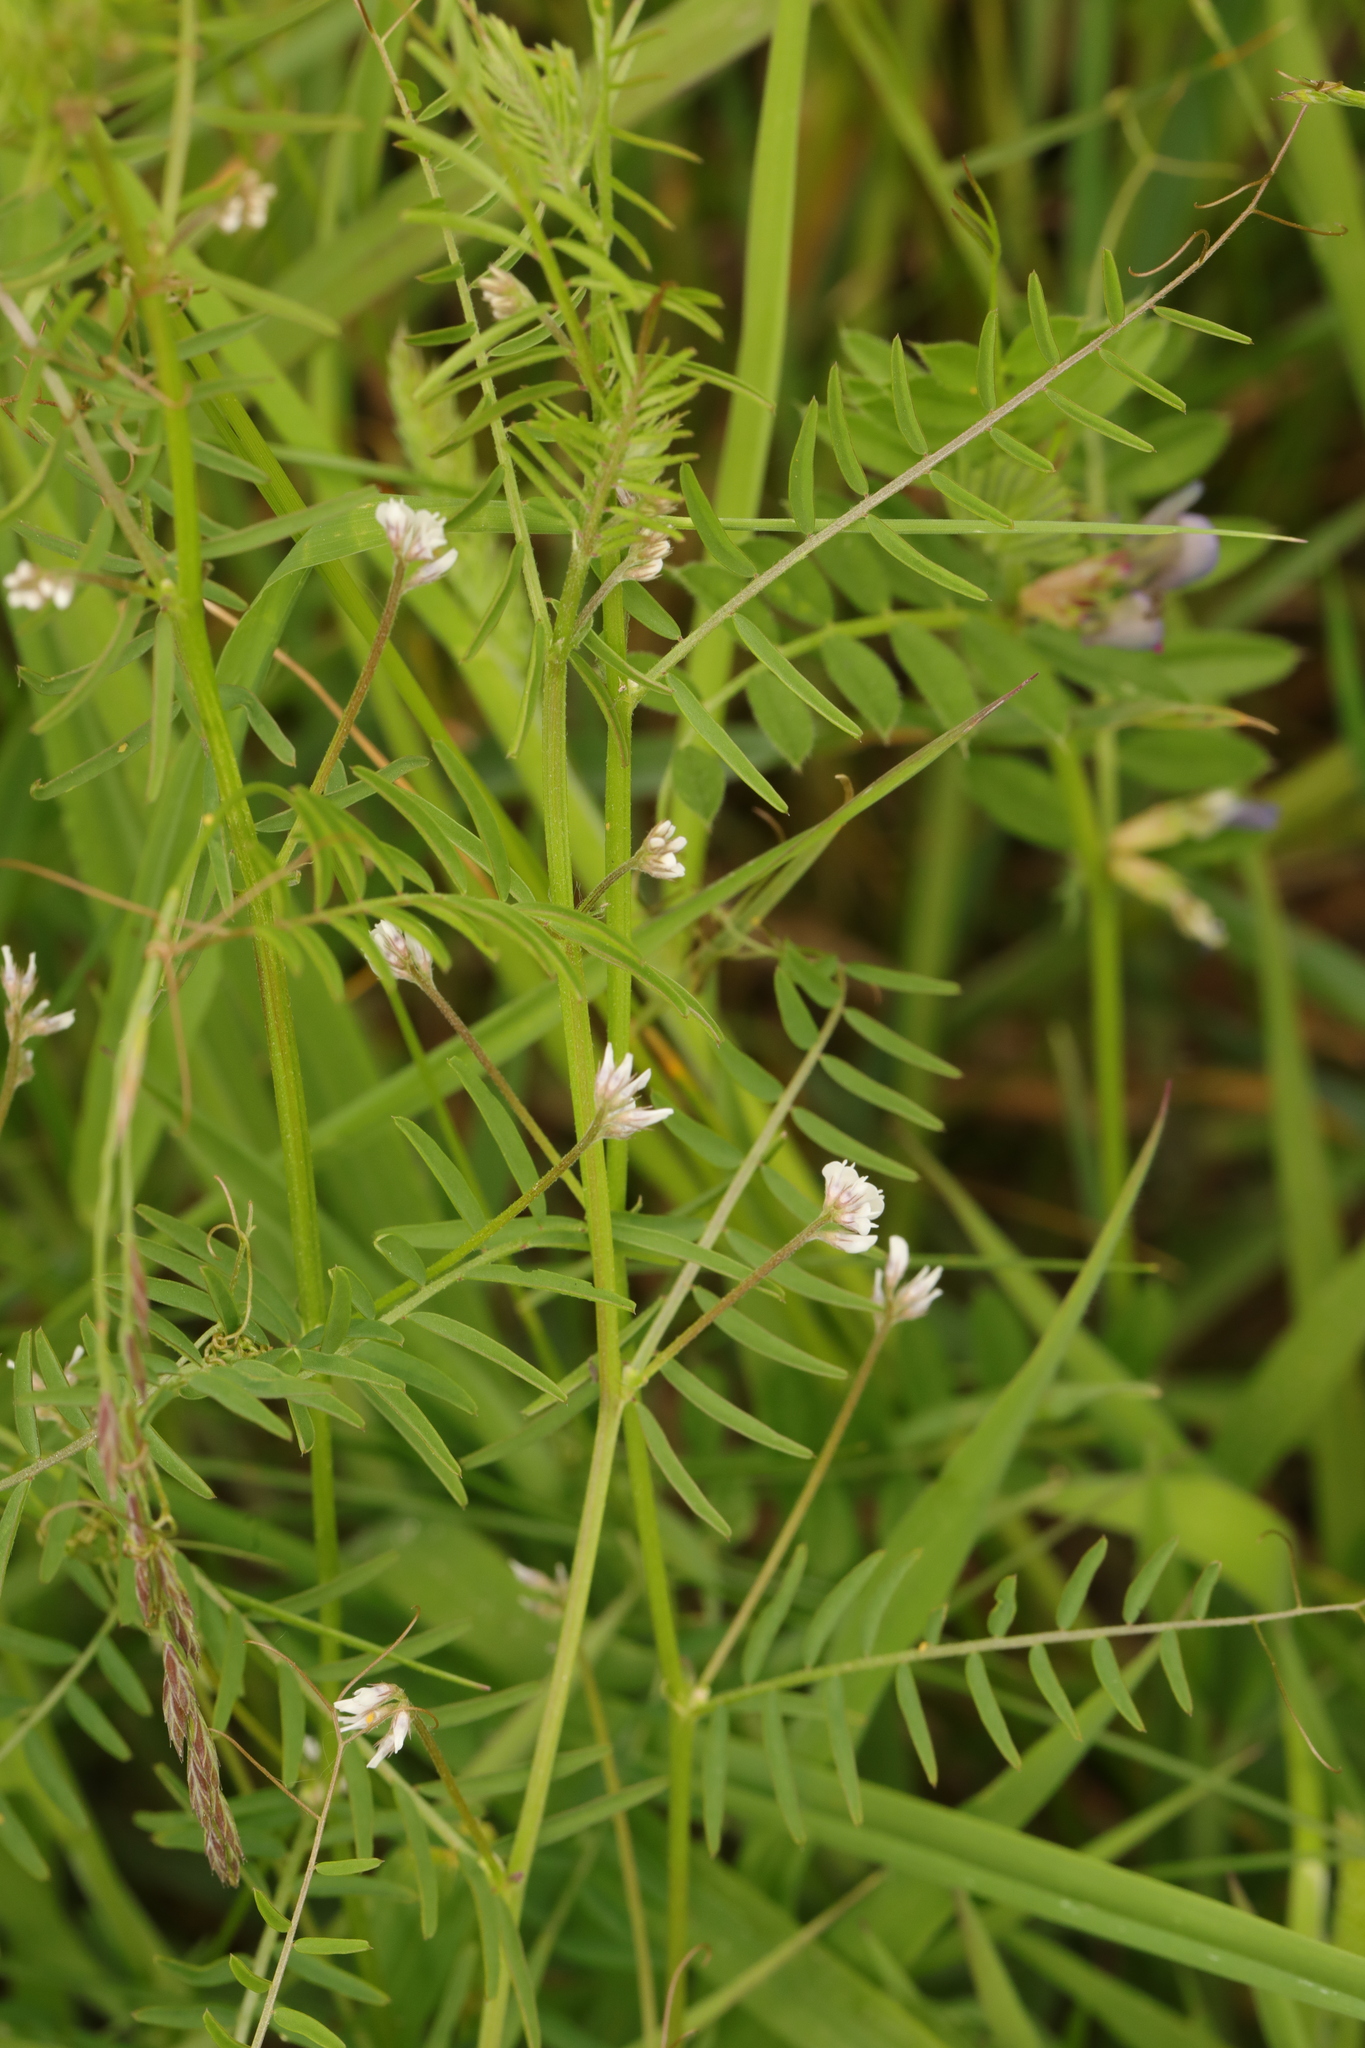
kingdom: Plantae
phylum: Tracheophyta
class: Magnoliopsida
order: Fabales
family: Fabaceae
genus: Vicia
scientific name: Vicia hirsuta
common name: Tiny vetch
